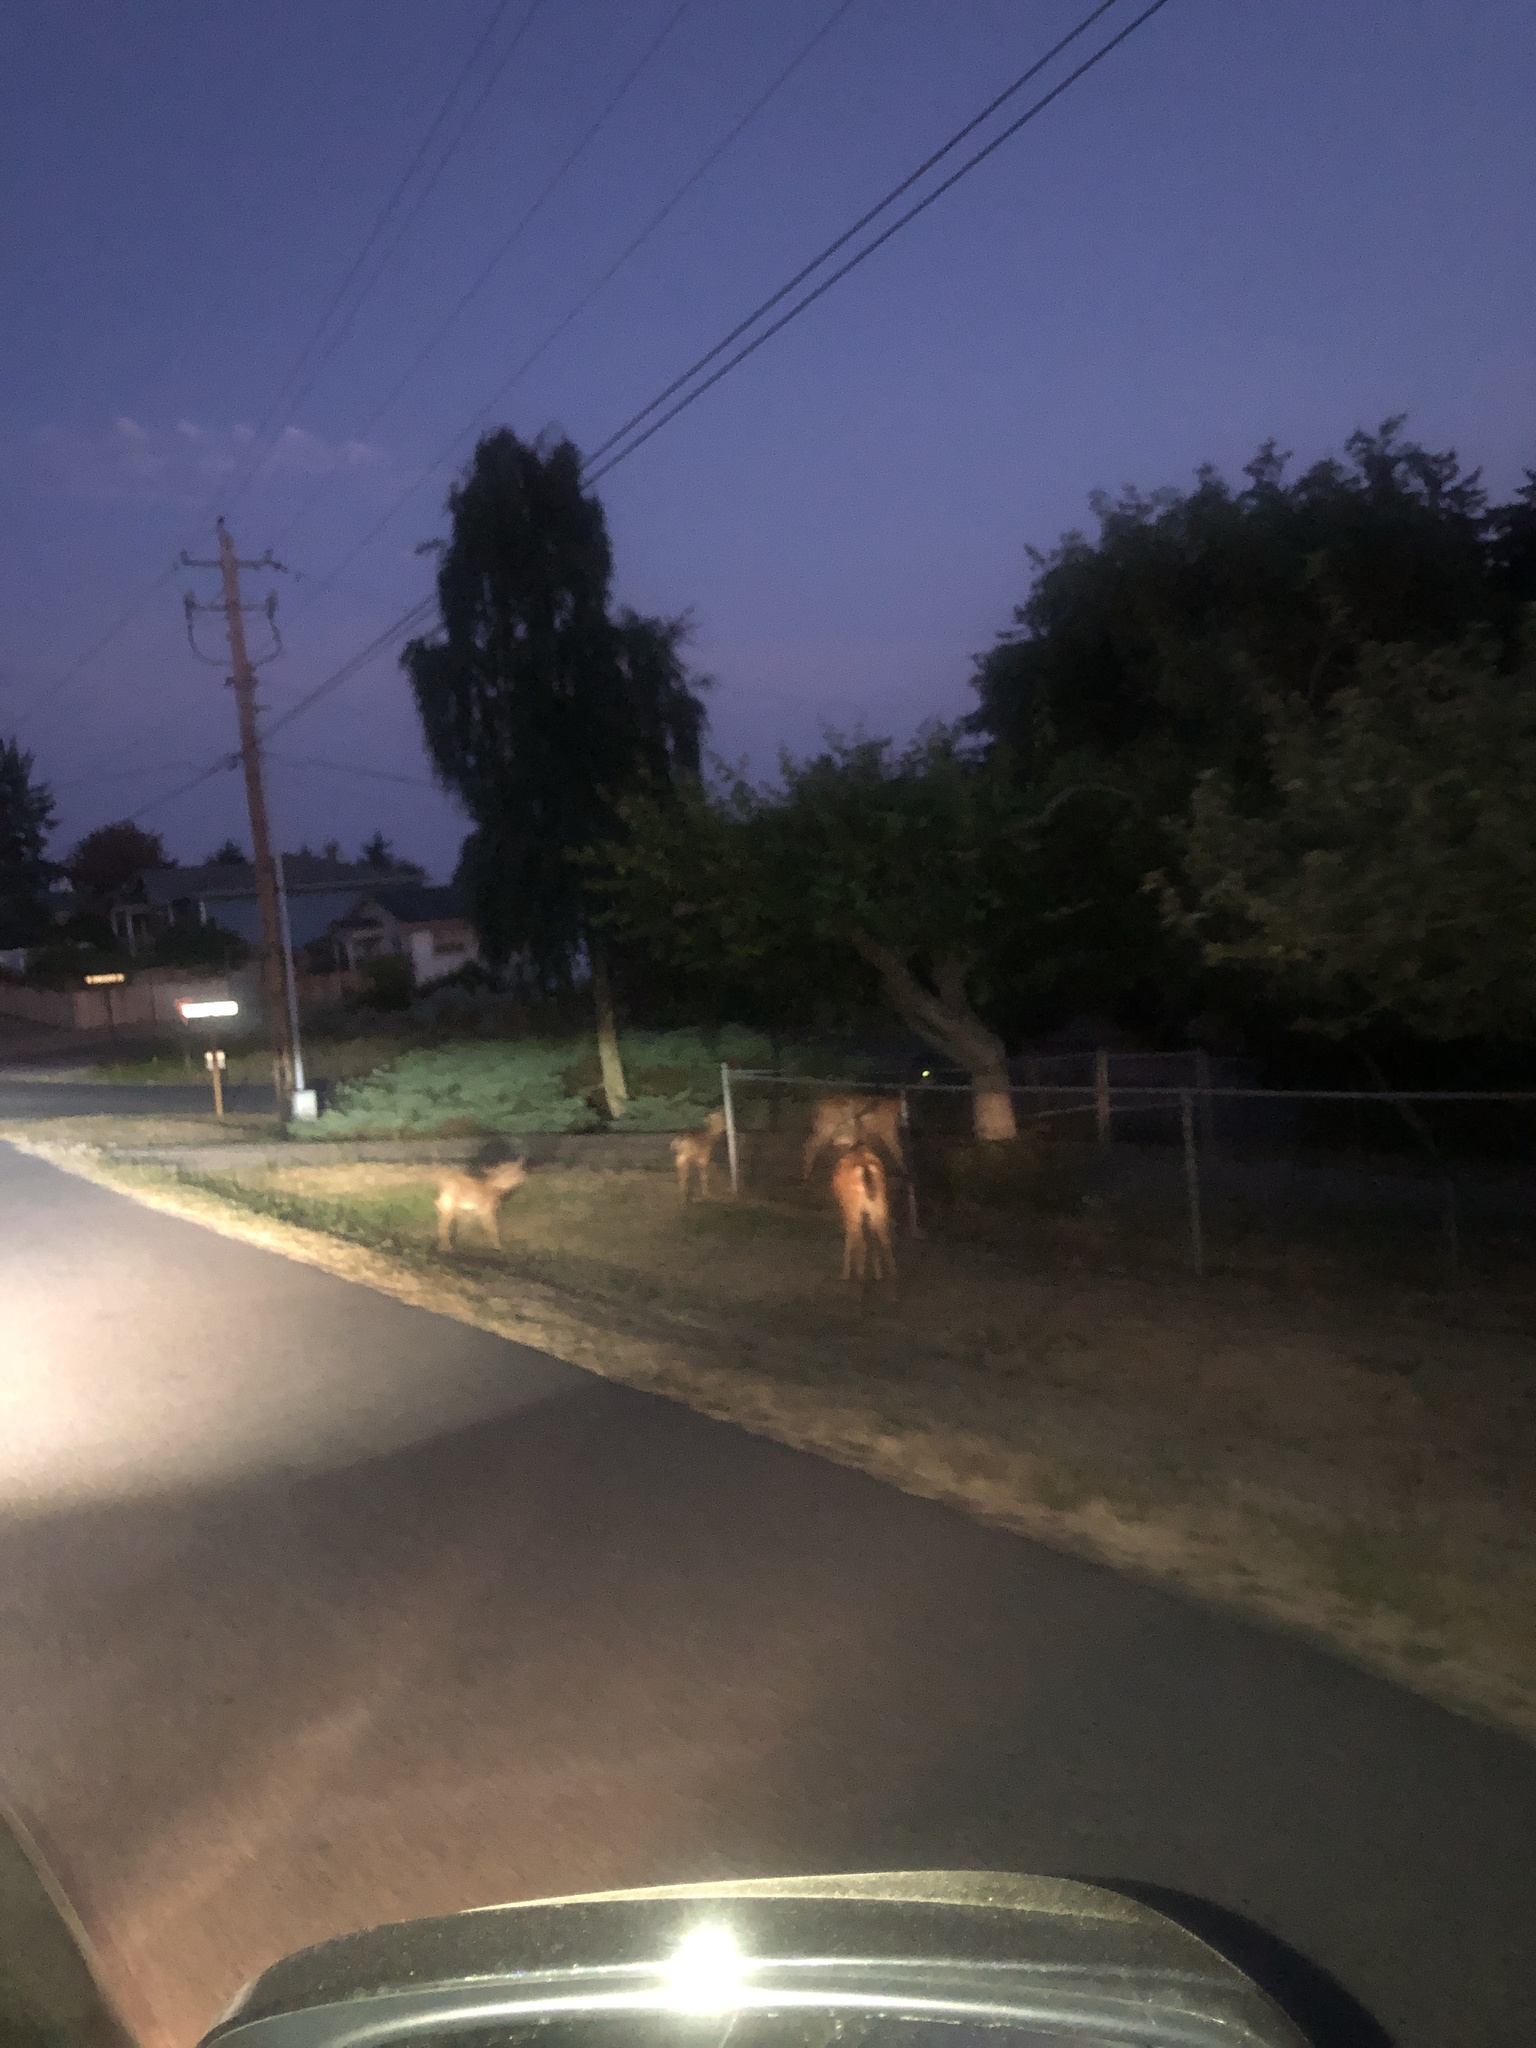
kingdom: Animalia
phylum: Chordata
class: Mammalia
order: Artiodactyla
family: Cervidae
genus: Odocoileus
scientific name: Odocoileus hemionus
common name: Mule deer
